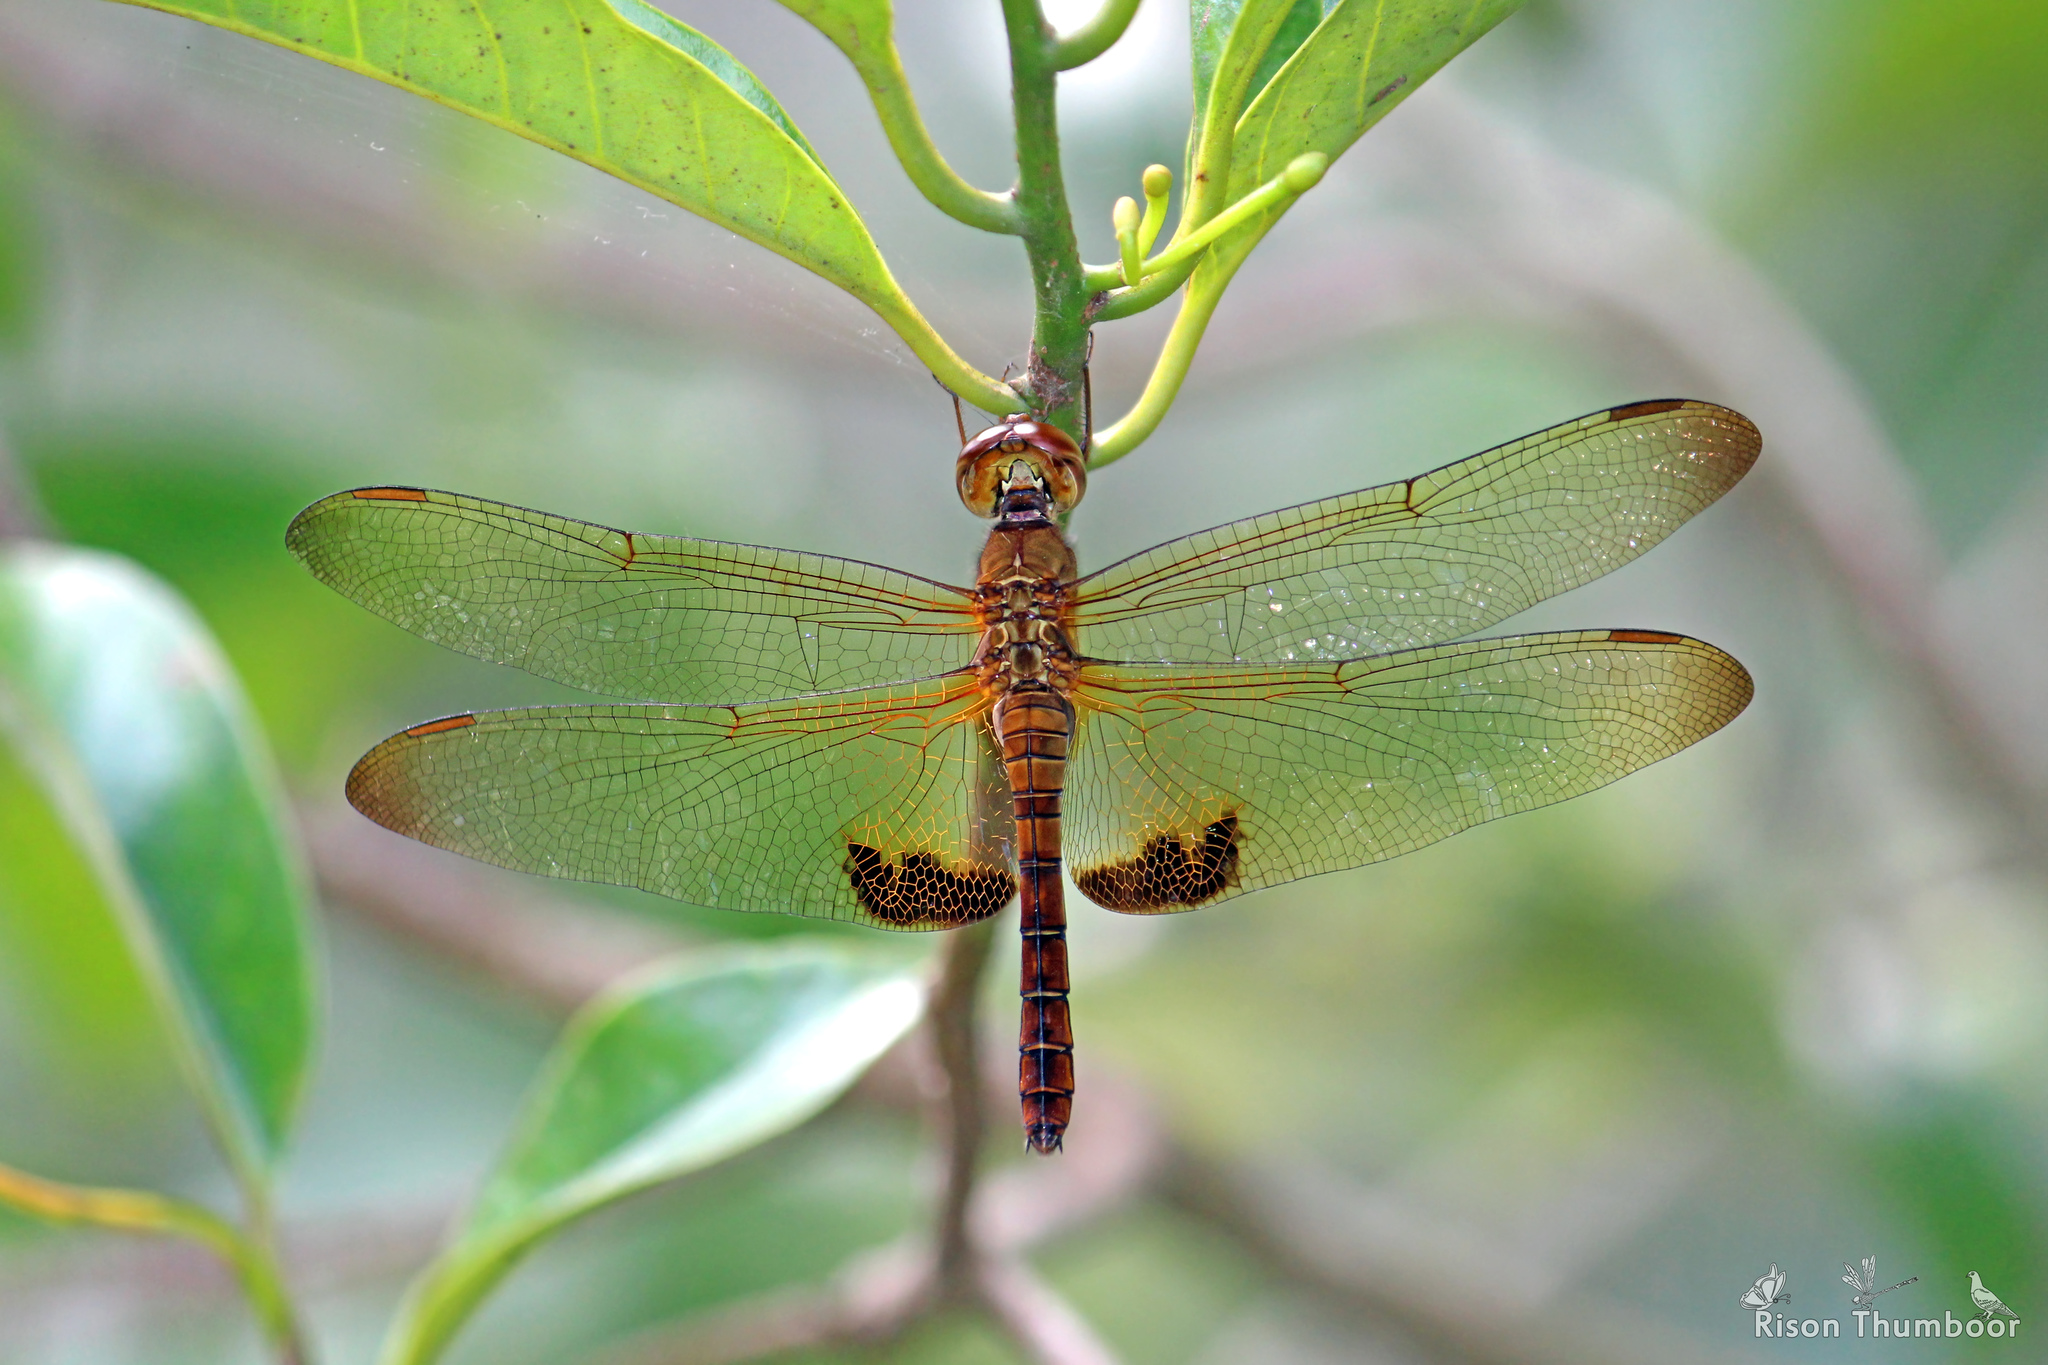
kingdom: Animalia
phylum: Arthropoda
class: Insecta
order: Odonata
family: Libellulidae
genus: Hydrobasileus
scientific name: Hydrobasileus croceus
